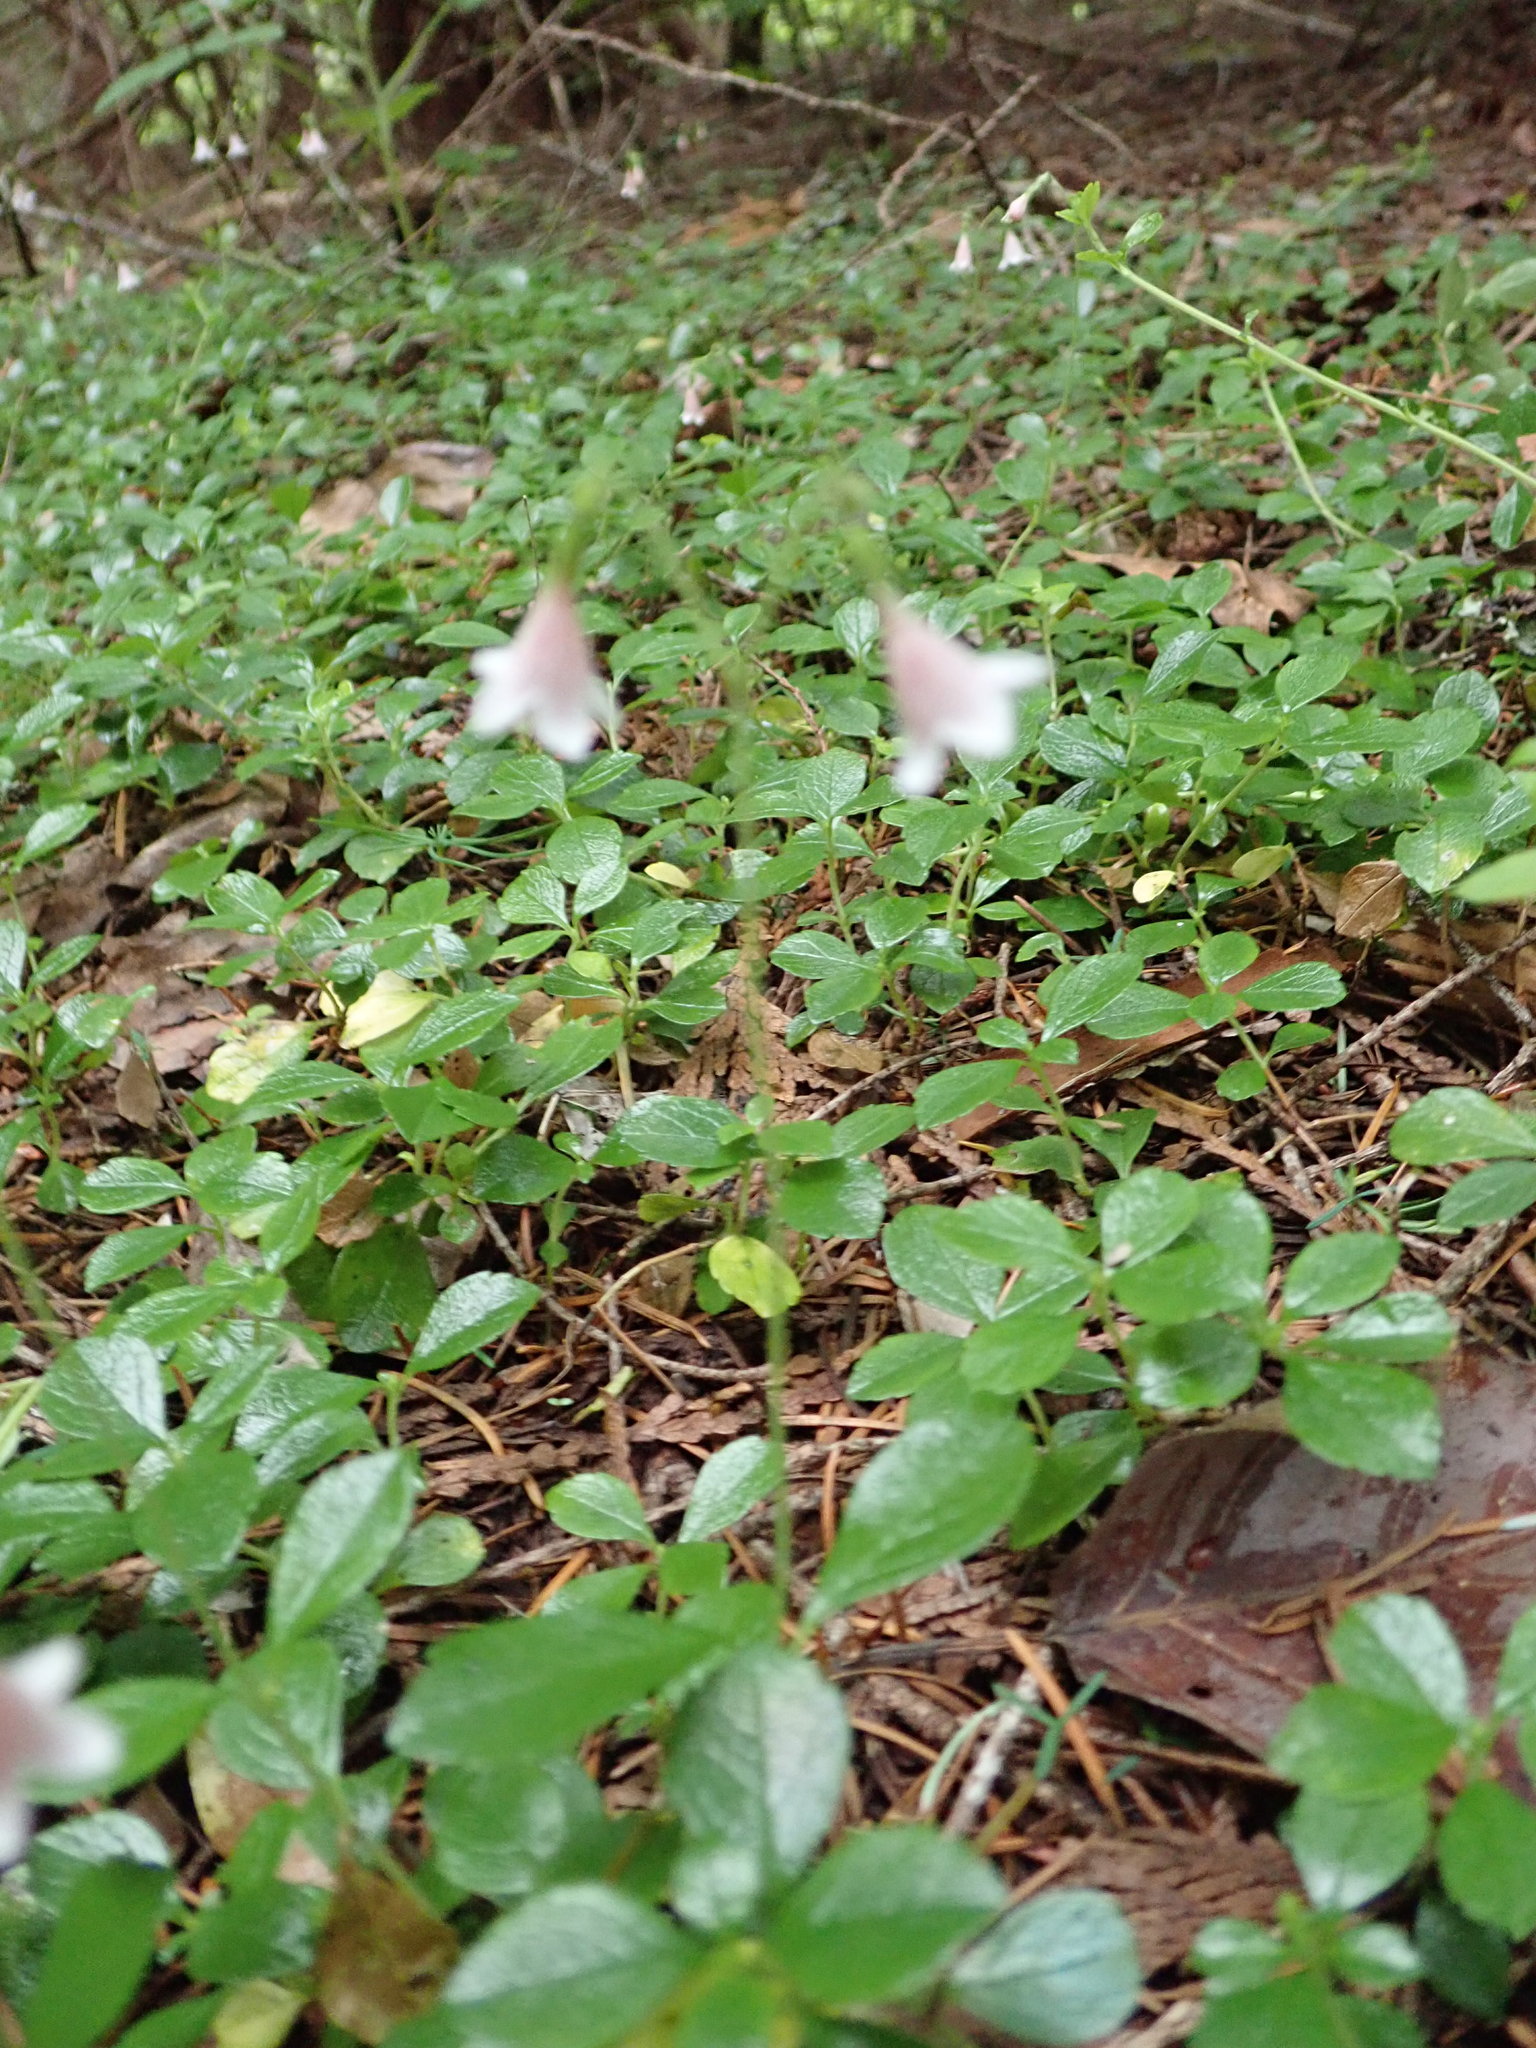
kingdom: Plantae
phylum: Tracheophyta
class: Magnoliopsida
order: Dipsacales
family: Caprifoliaceae
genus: Linnaea
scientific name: Linnaea borealis
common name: Twinflower
